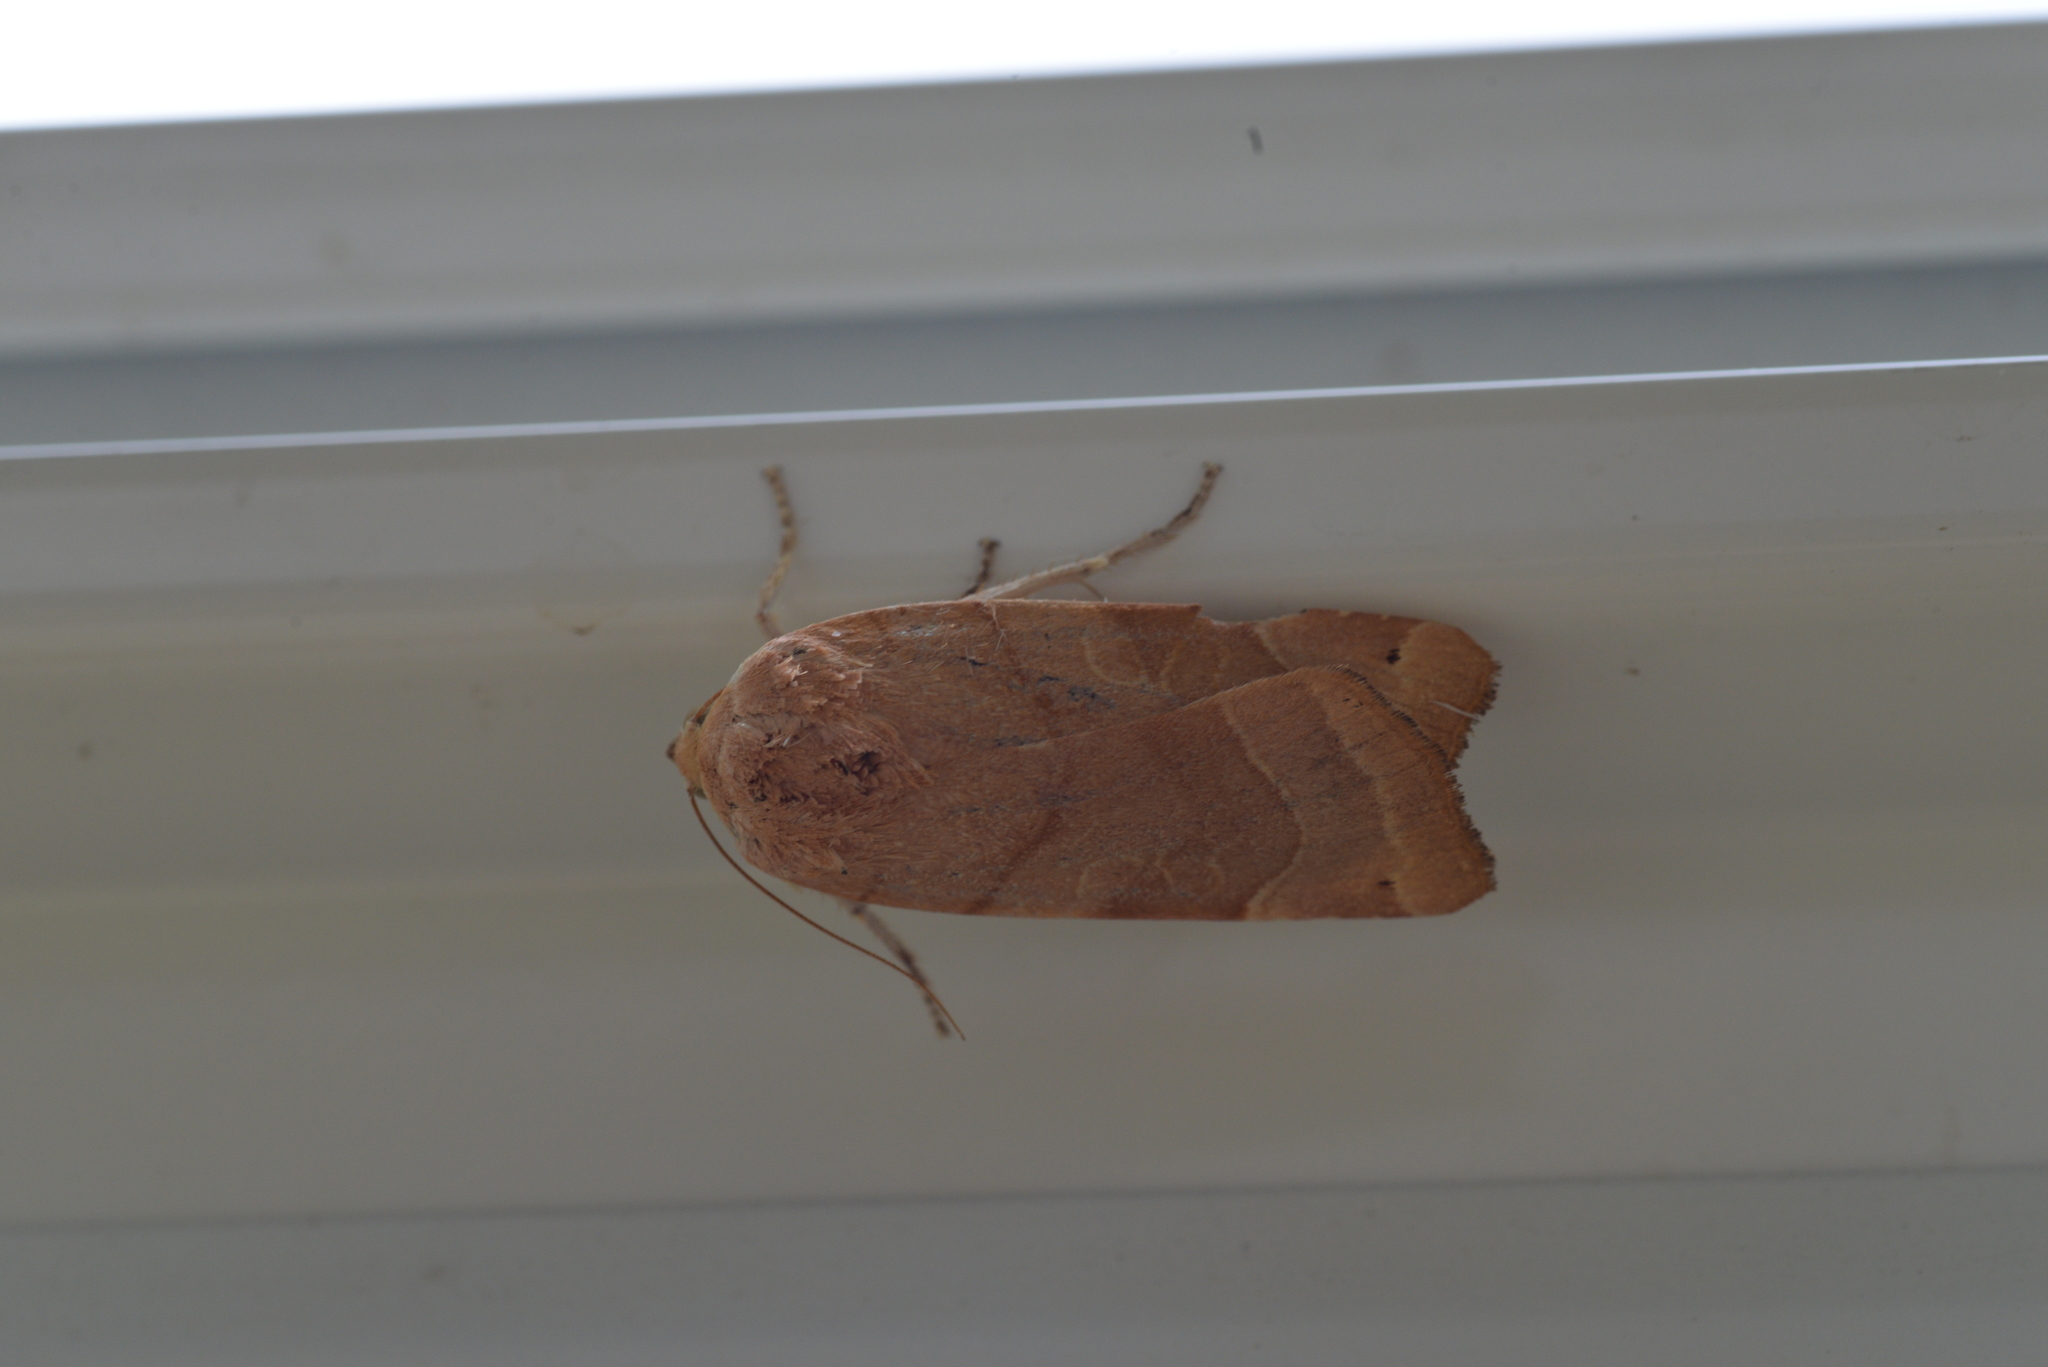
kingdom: Animalia
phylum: Arthropoda
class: Insecta
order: Lepidoptera
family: Noctuidae
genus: Noctua
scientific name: Noctua fimbriata
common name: Broad-bordered yellow underwing
